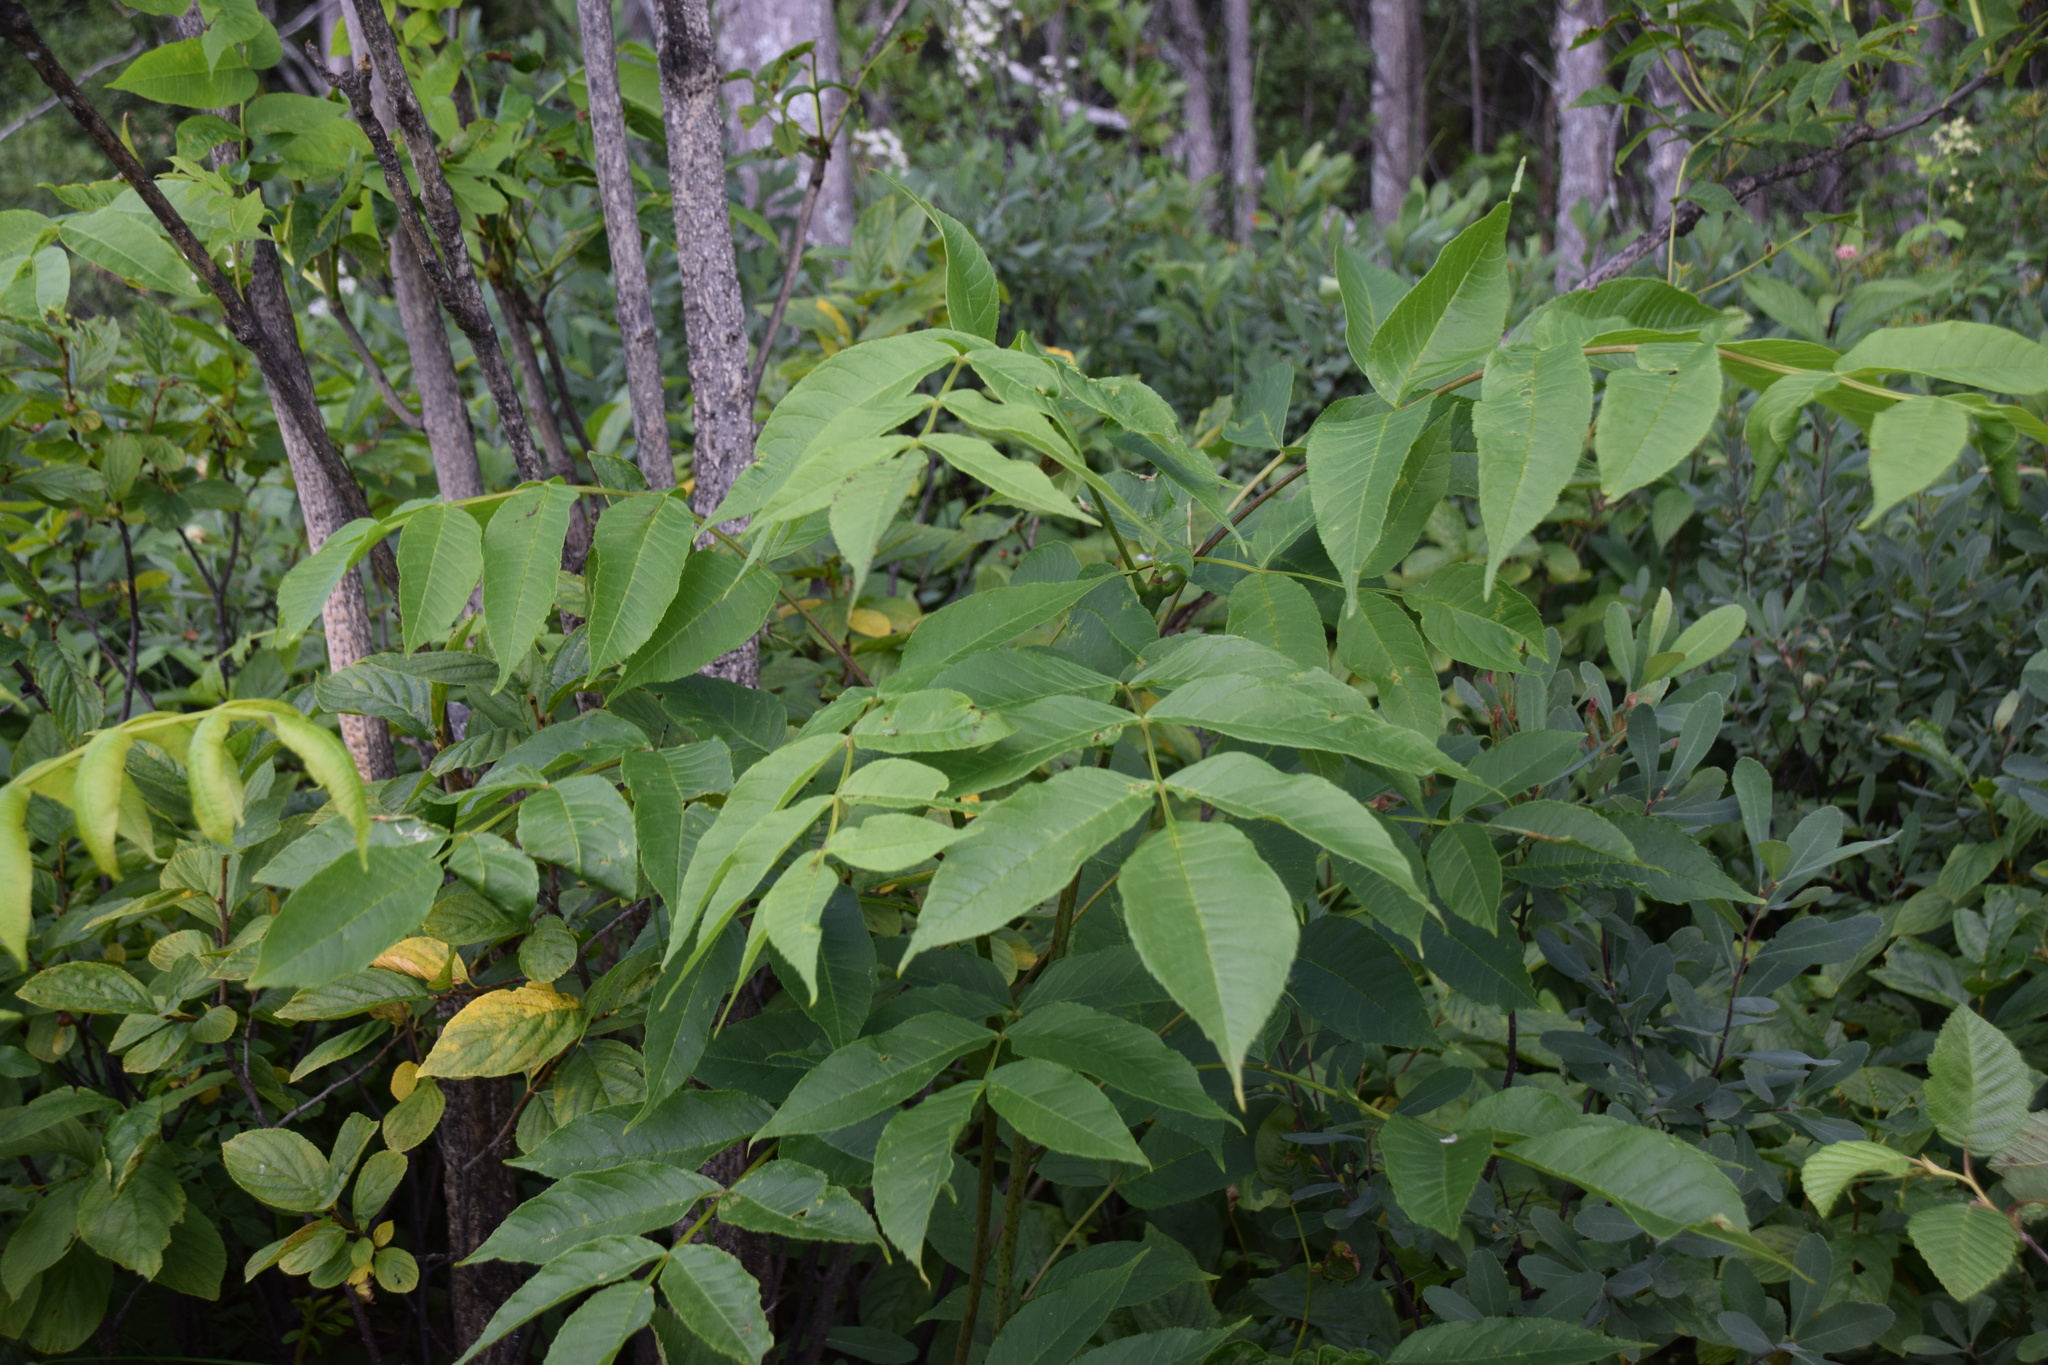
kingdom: Plantae
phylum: Tracheophyta
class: Magnoliopsida
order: Lamiales
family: Oleaceae
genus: Fraxinus
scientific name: Fraxinus nigra
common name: Black ash
